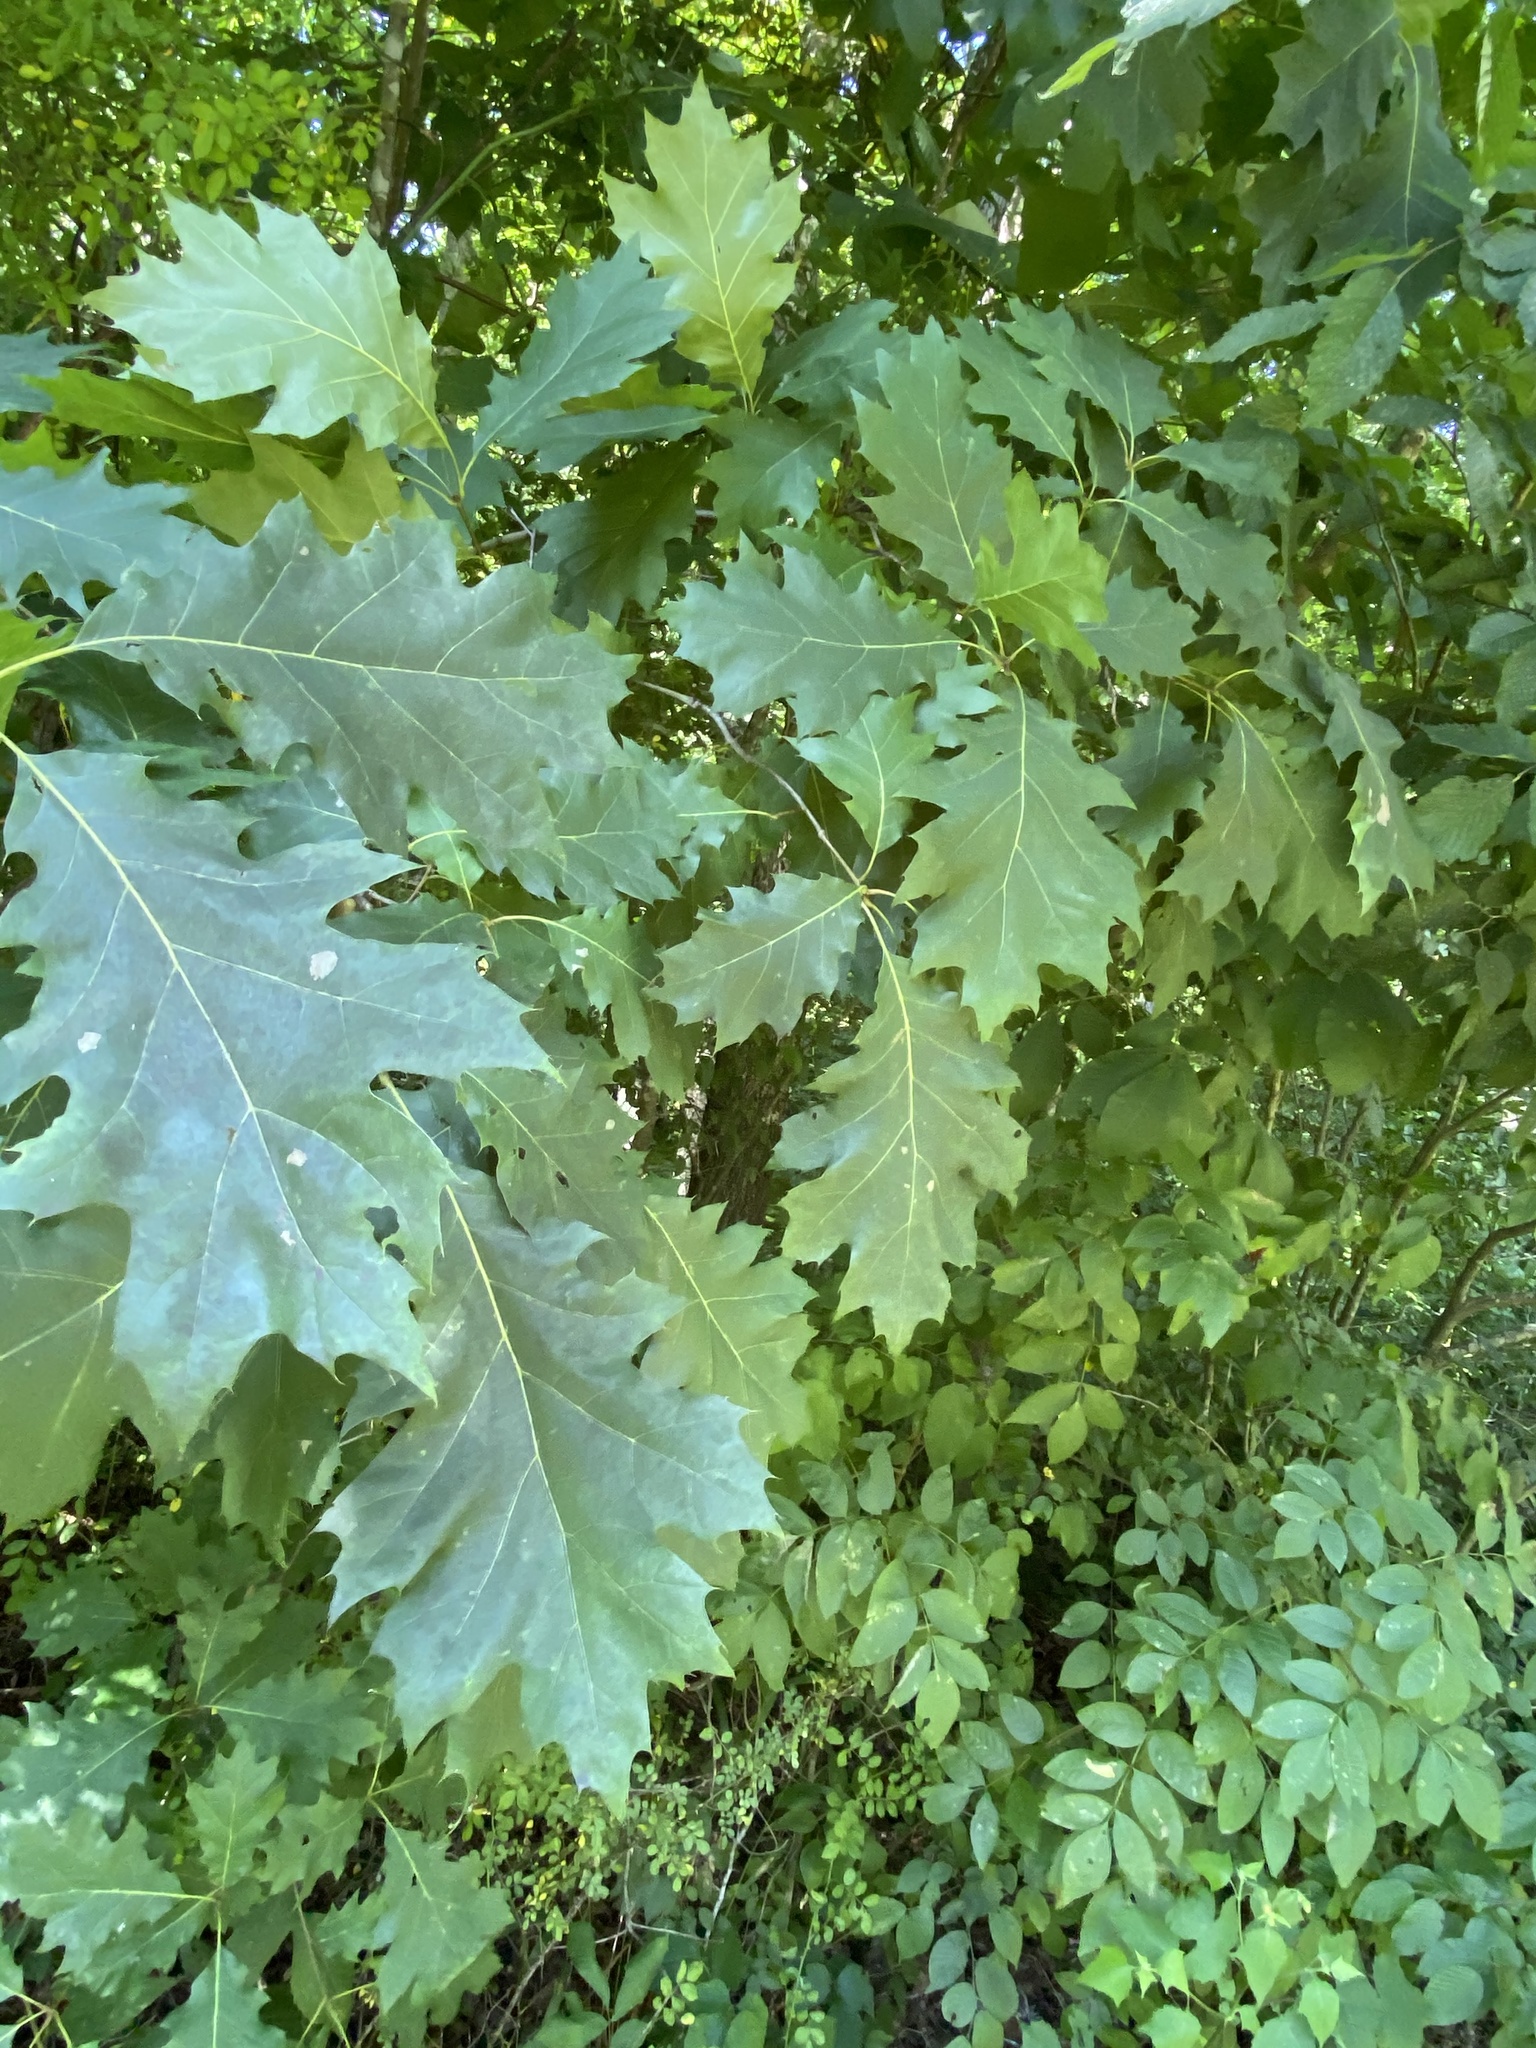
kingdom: Plantae
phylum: Tracheophyta
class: Magnoliopsida
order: Fagales
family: Fagaceae
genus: Quercus
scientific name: Quercus rubra
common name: Red oak
